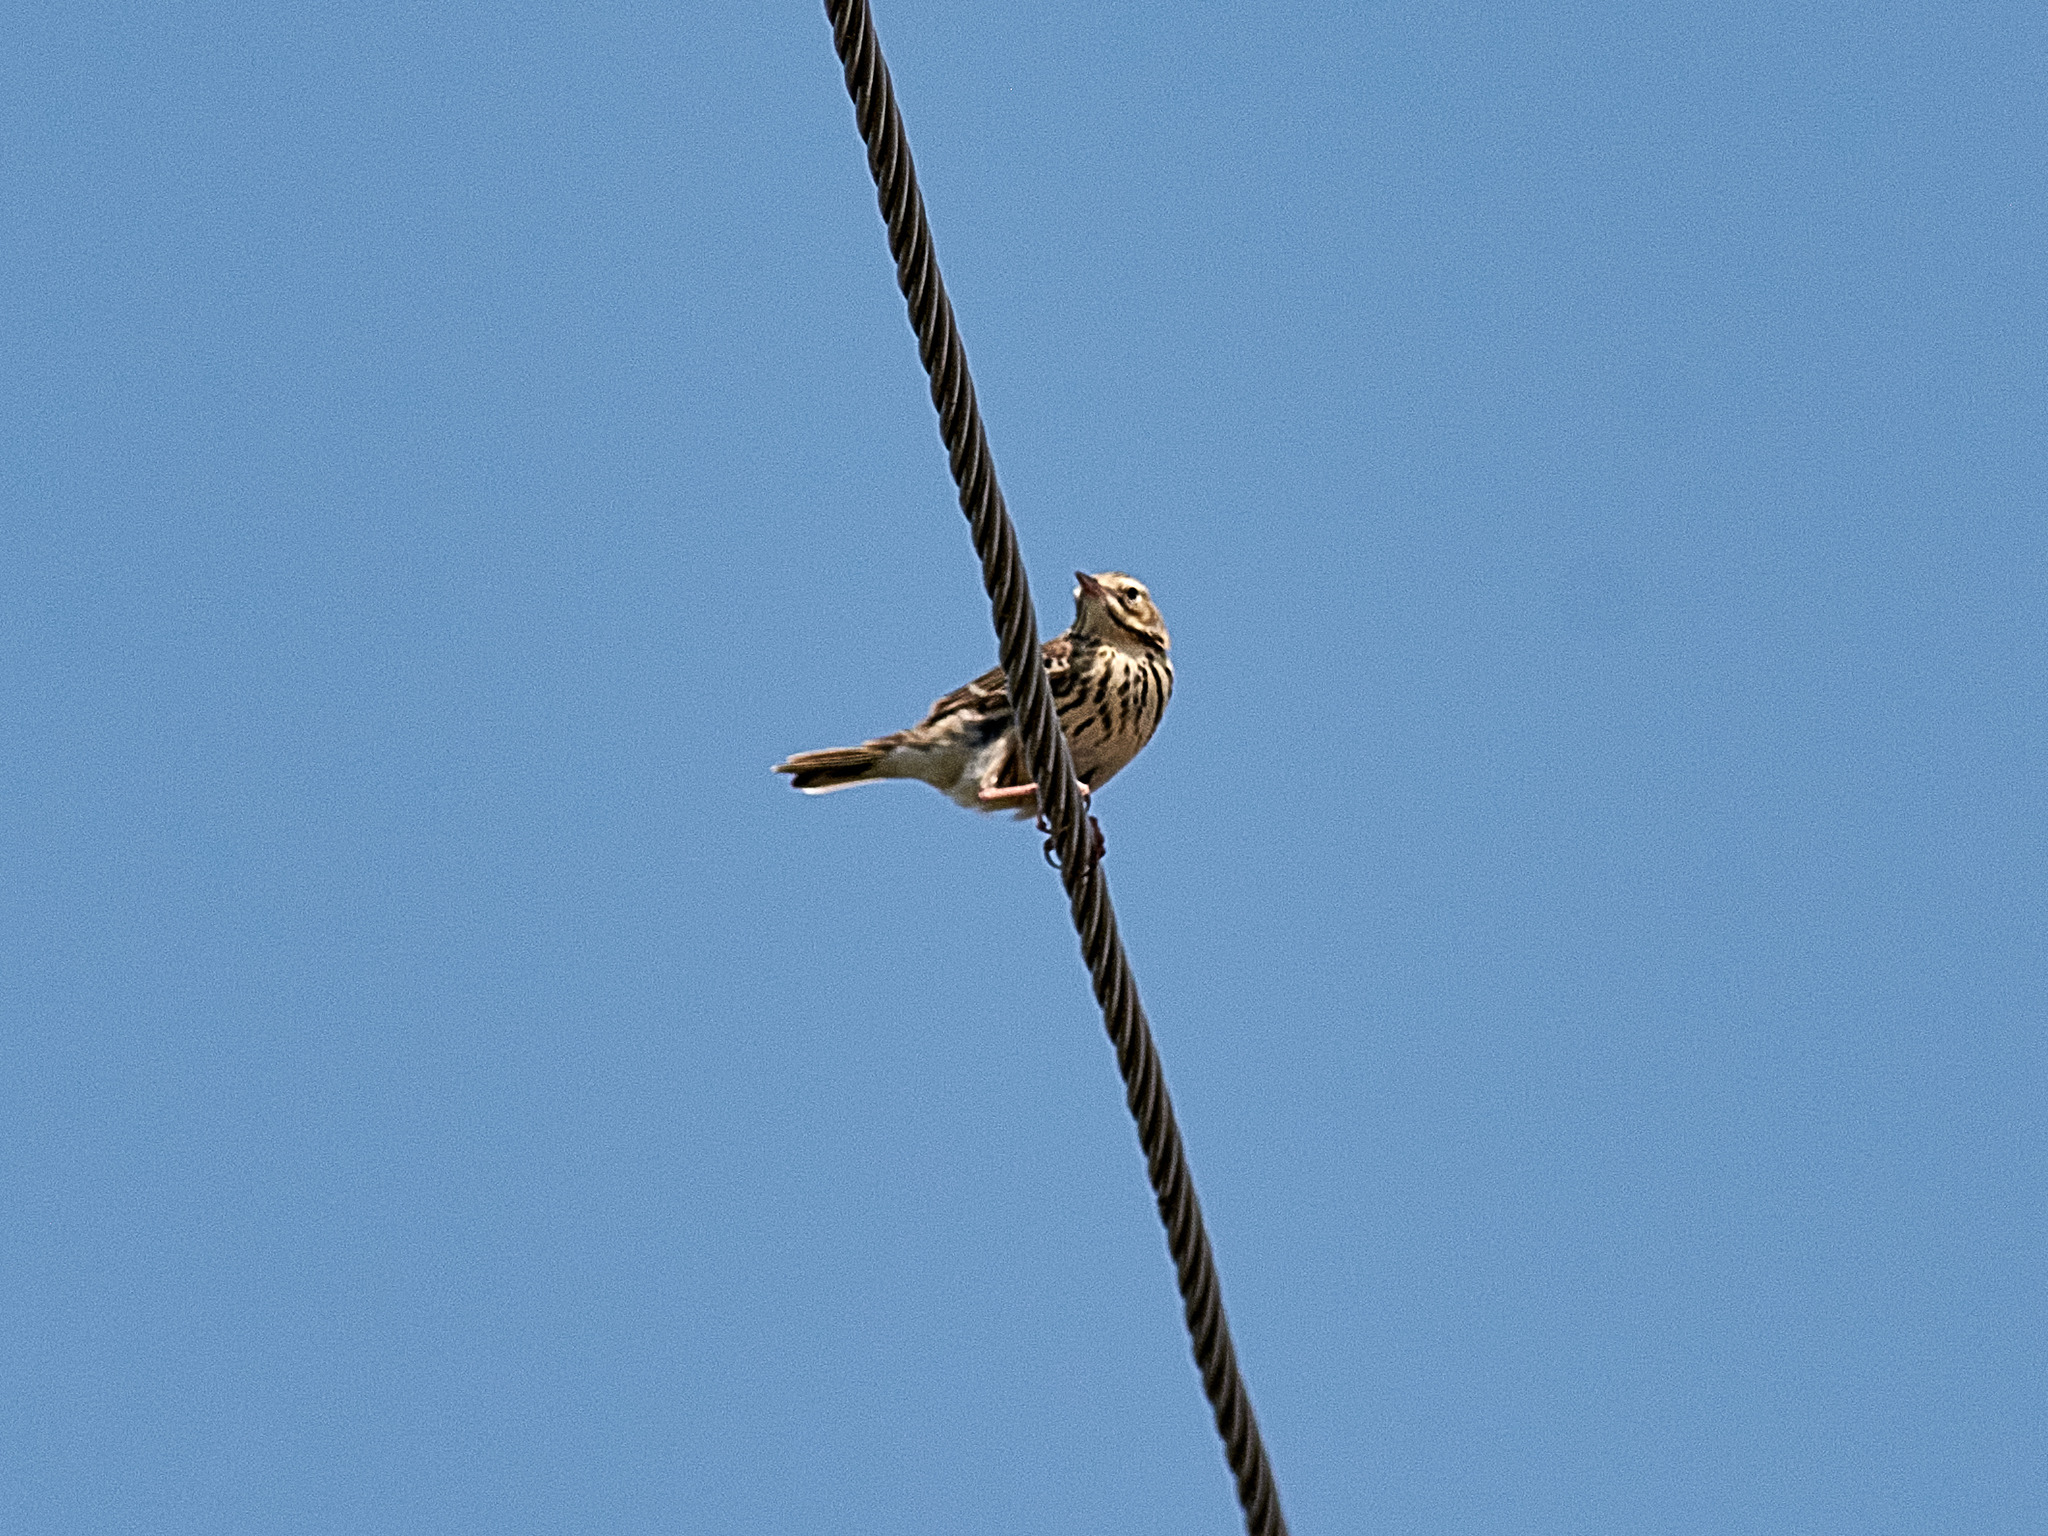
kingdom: Animalia
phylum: Chordata
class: Aves
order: Passeriformes
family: Motacillidae
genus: Anthus
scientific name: Anthus trivialis
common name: Tree pipit
